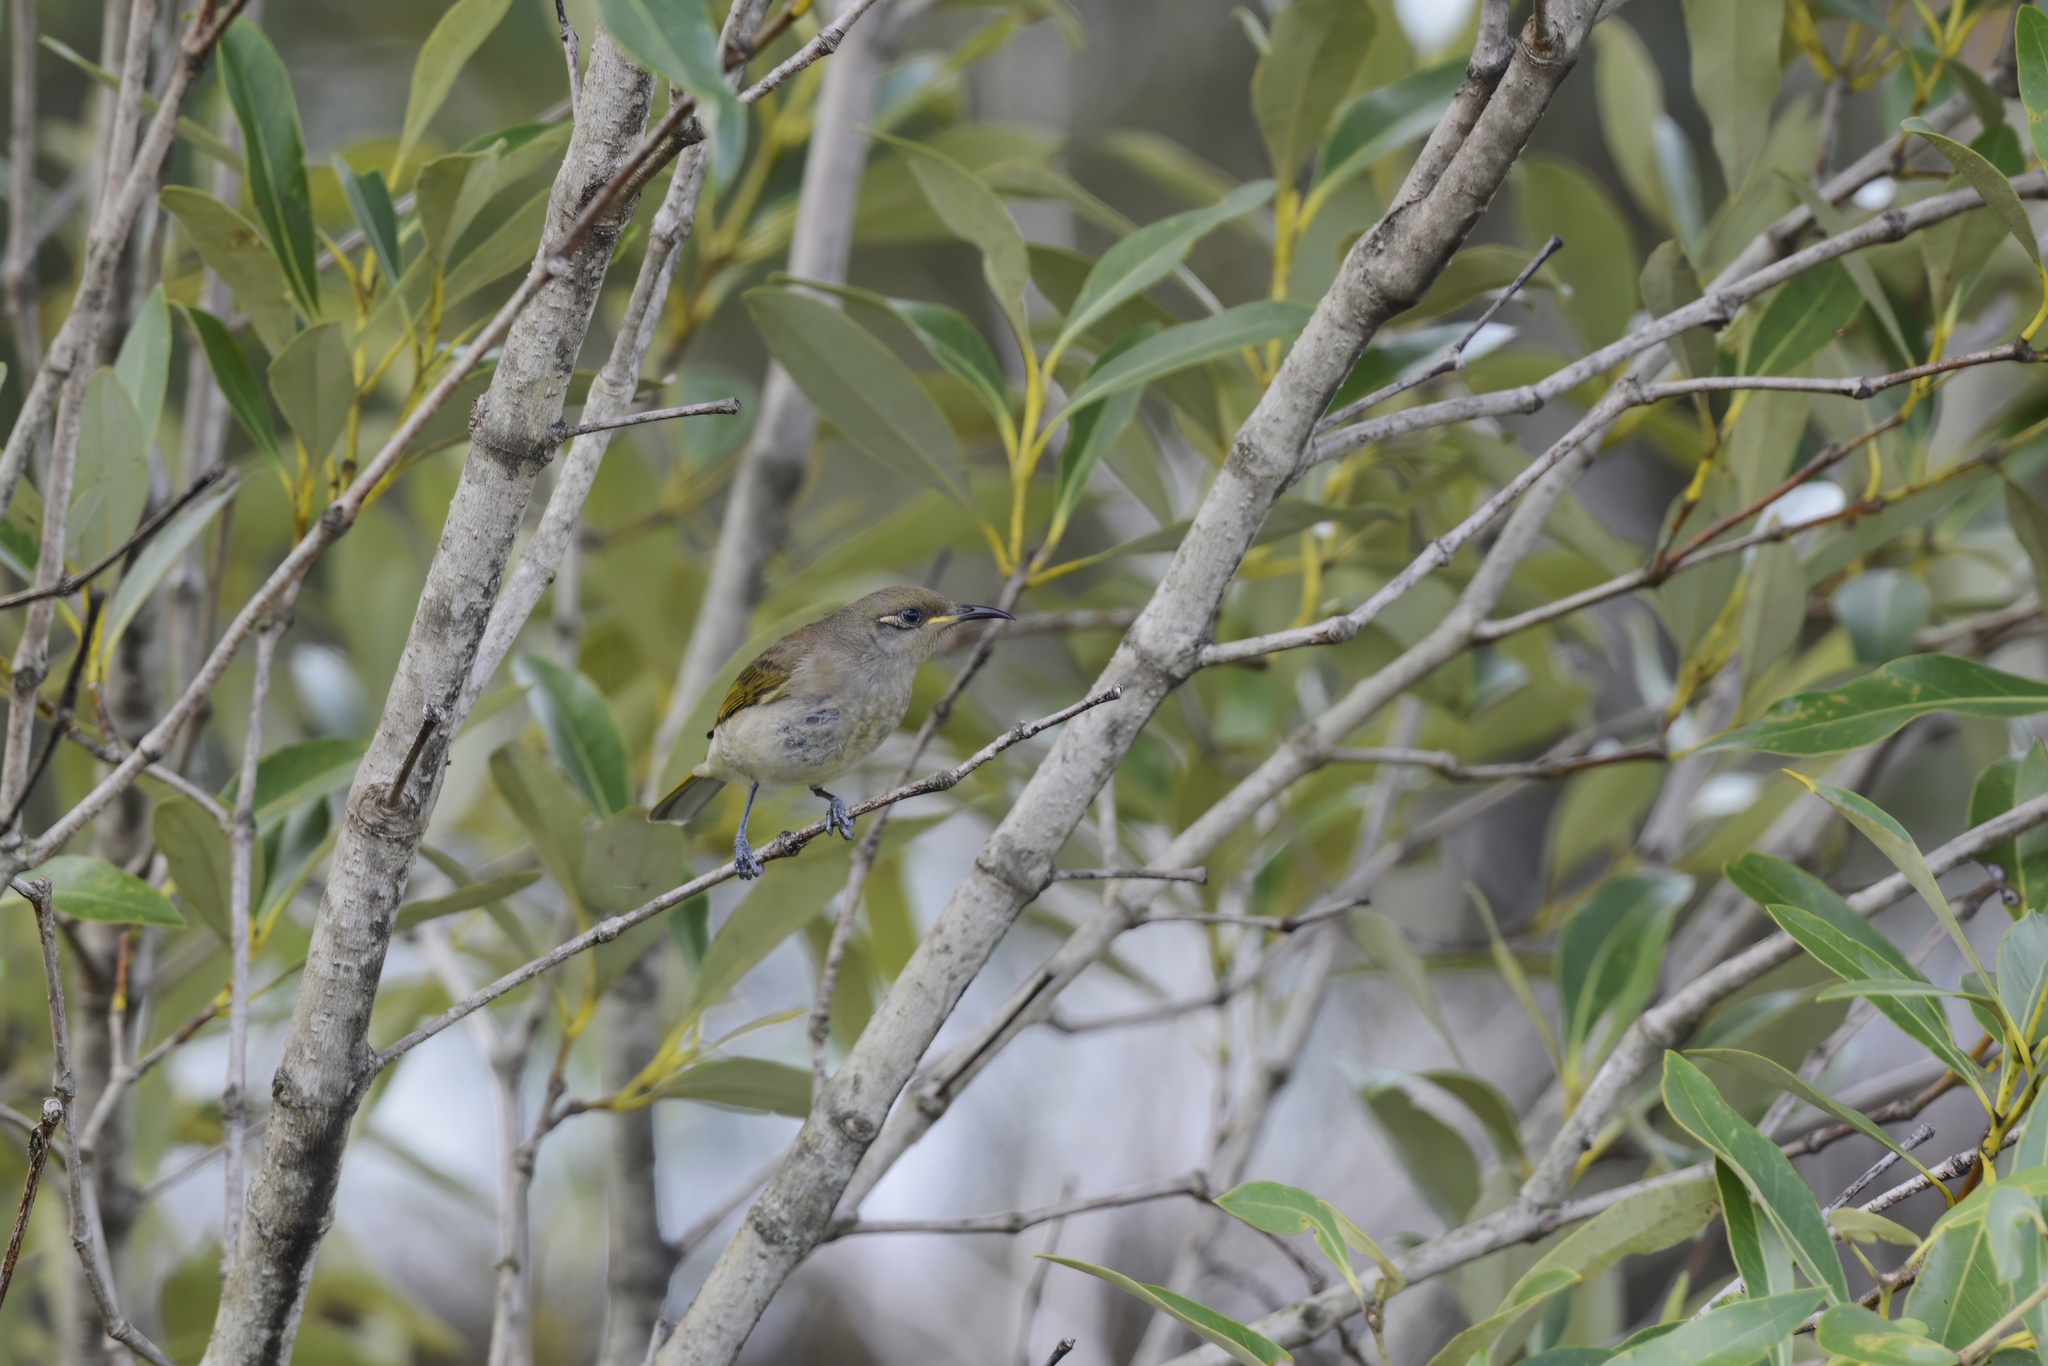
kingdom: Animalia
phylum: Chordata
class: Aves
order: Passeriformes
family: Meliphagidae
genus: Lichmera
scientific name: Lichmera indistincta
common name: Brown honeyeater
